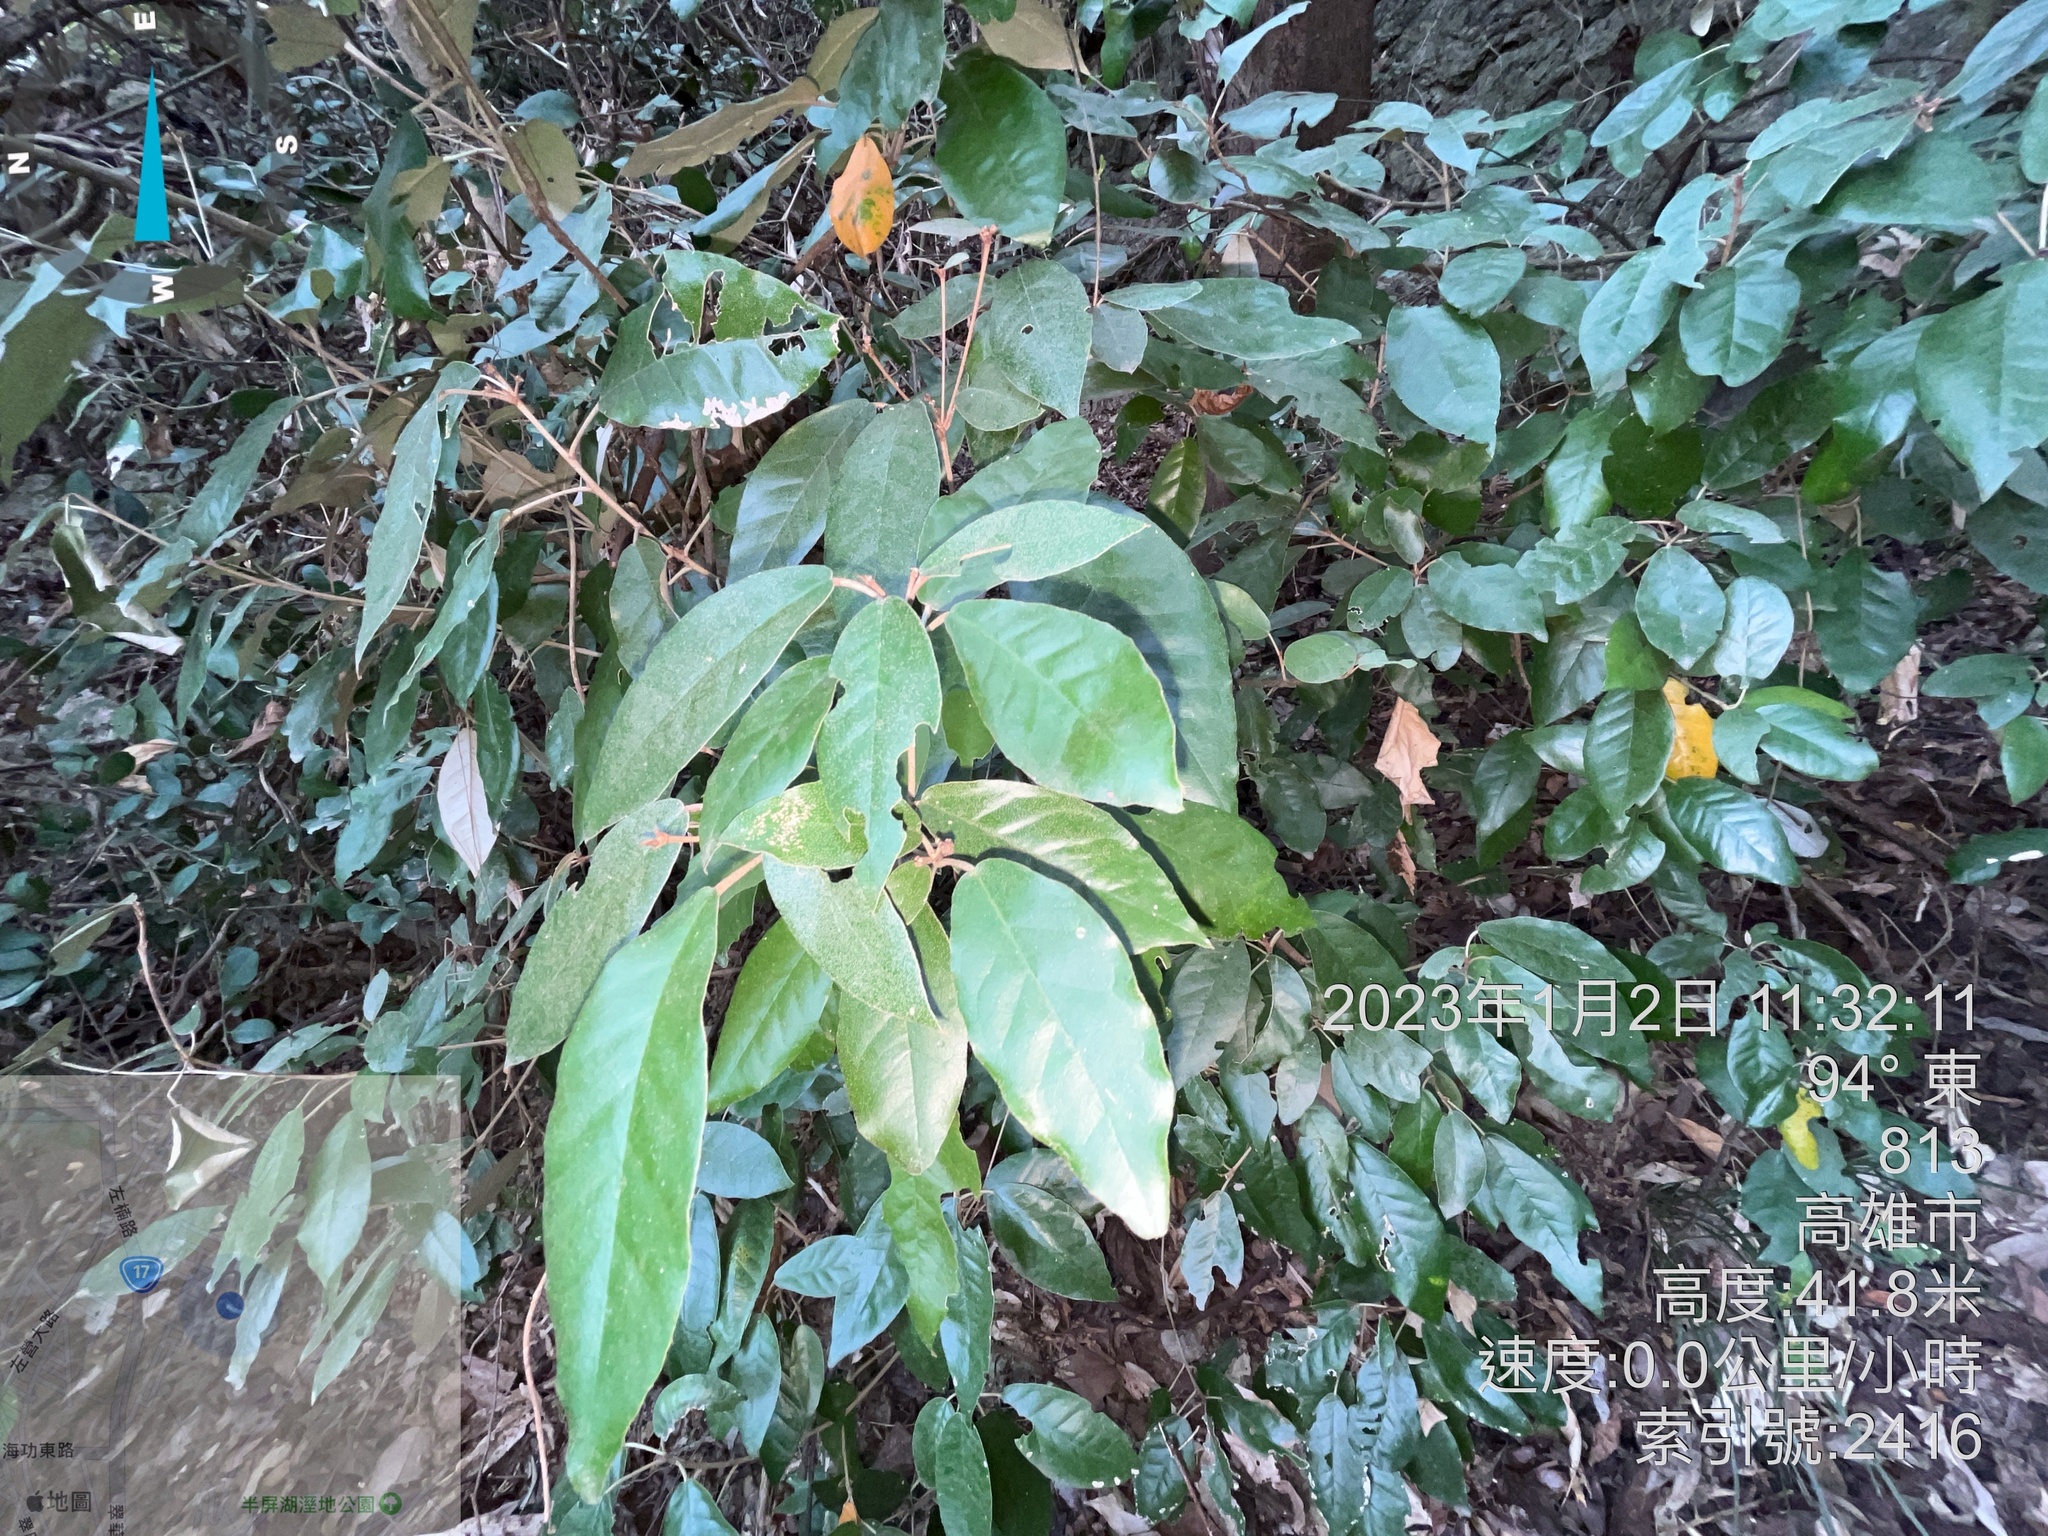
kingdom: Plantae
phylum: Tracheophyta
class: Magnoliopsida
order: Malpighiales
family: Euphorbiaceae
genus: Croton
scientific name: Croton cascarilloides
